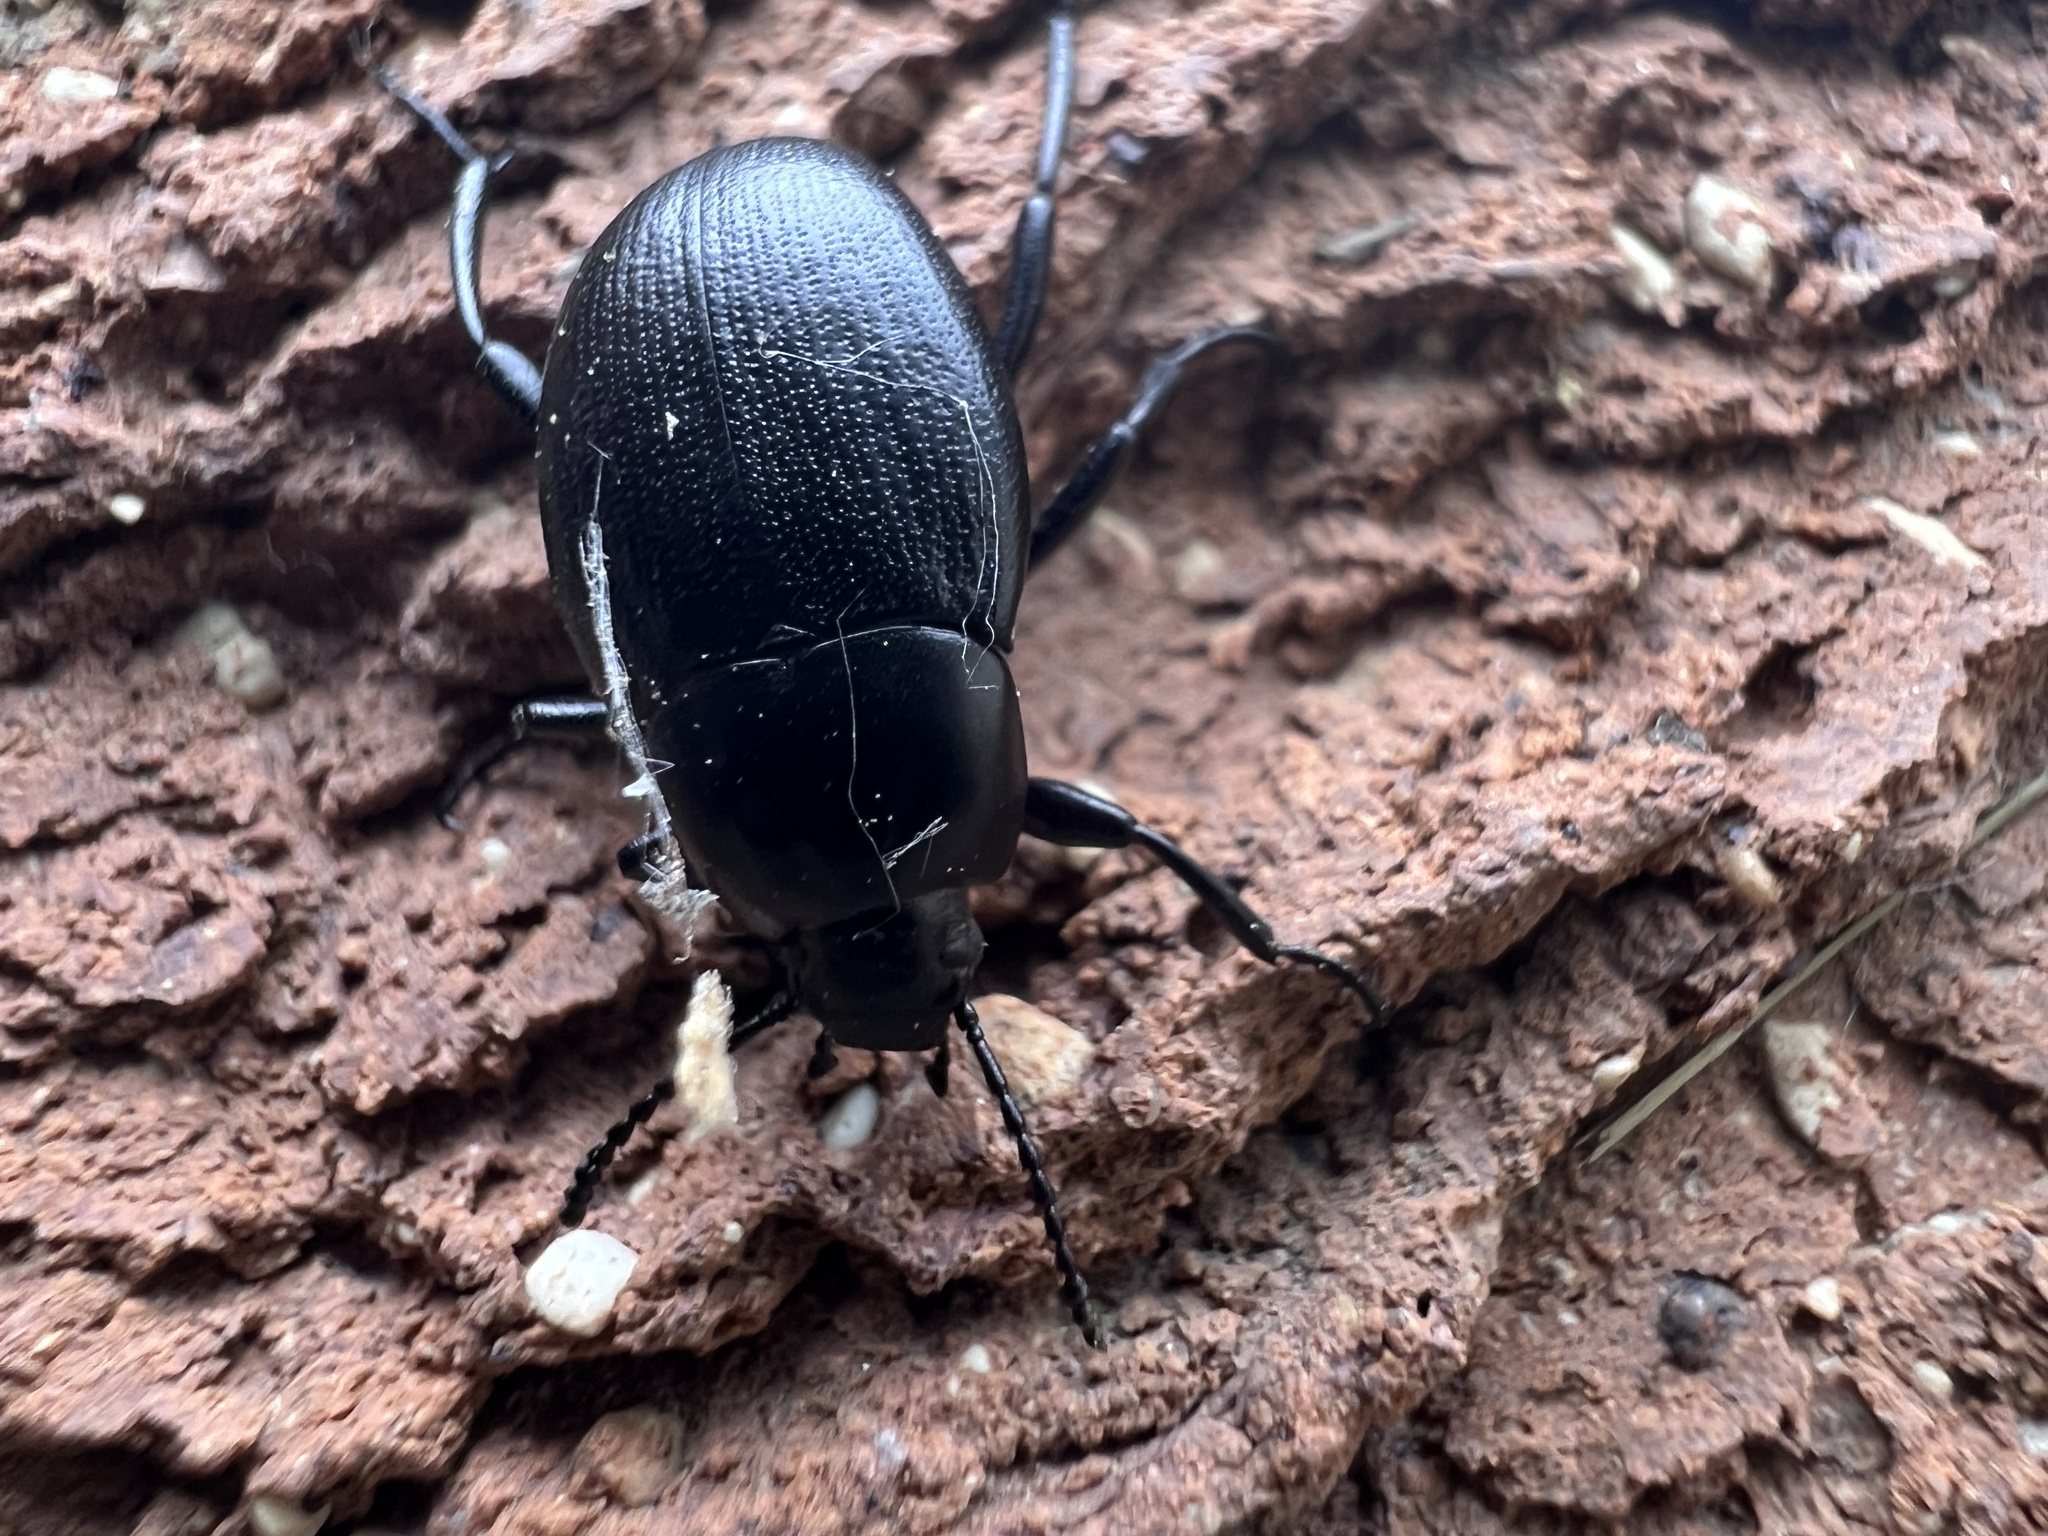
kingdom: Animalia
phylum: Arthropoda
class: Insecta
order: Coleoptera
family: Tenebrionidae
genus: Eleodes
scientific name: Eleodes fusiformis
